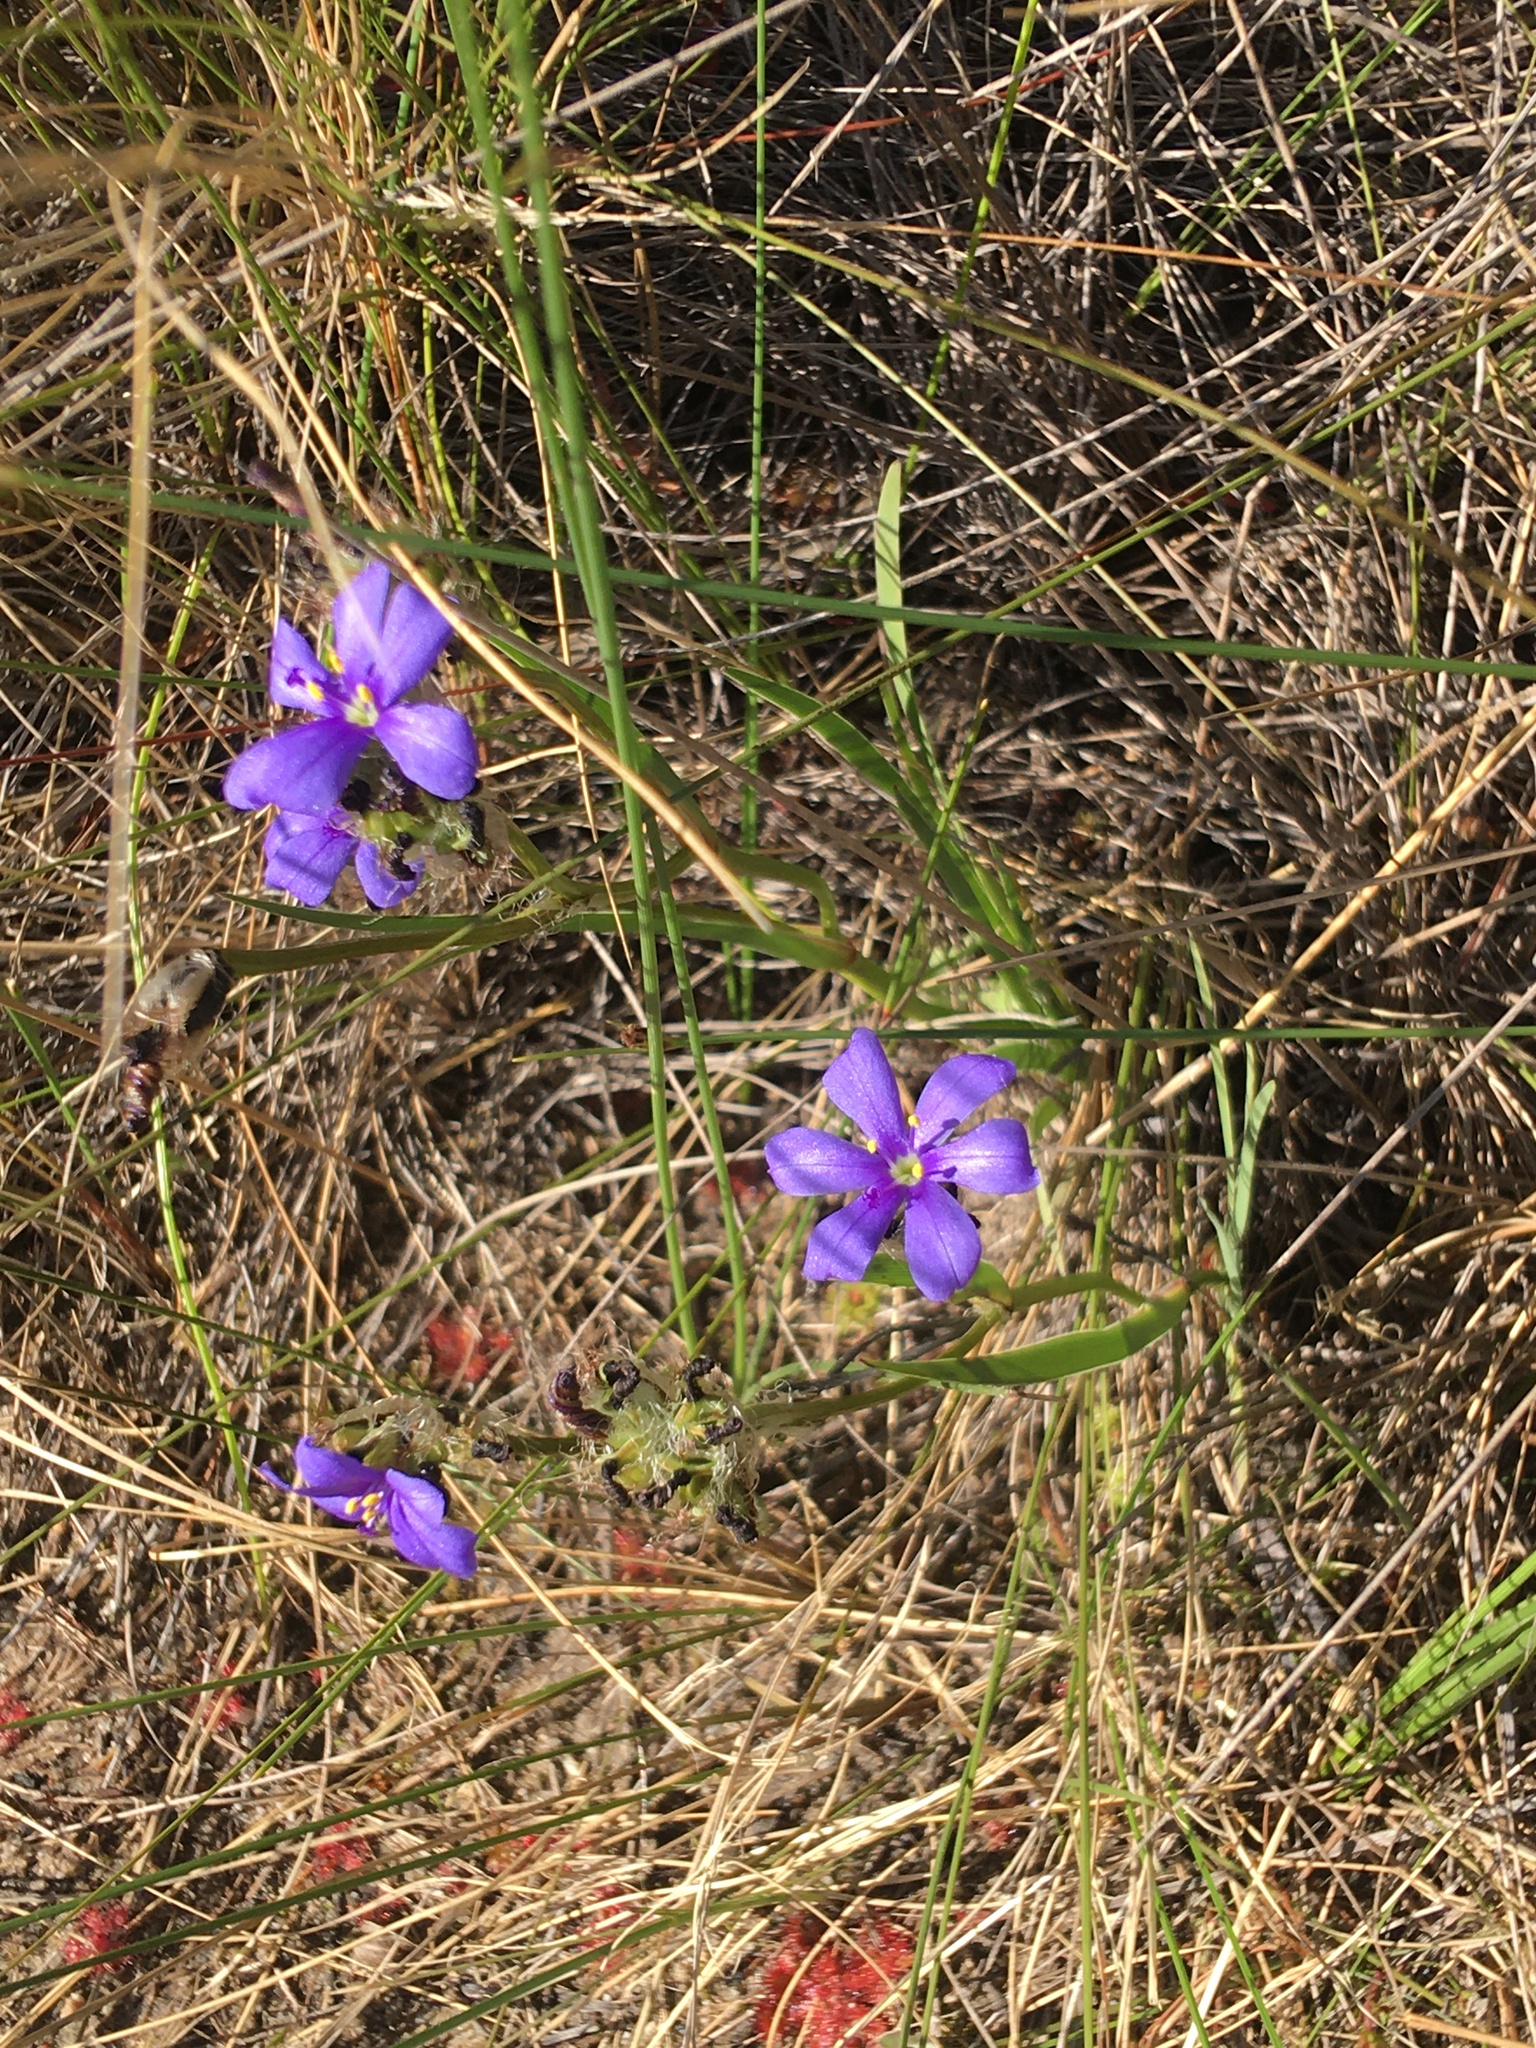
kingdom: Plantae
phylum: Tracheophyta
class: Liliopsida
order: Asparagales
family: Iridaceae
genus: Aristea
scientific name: Aristea africana
